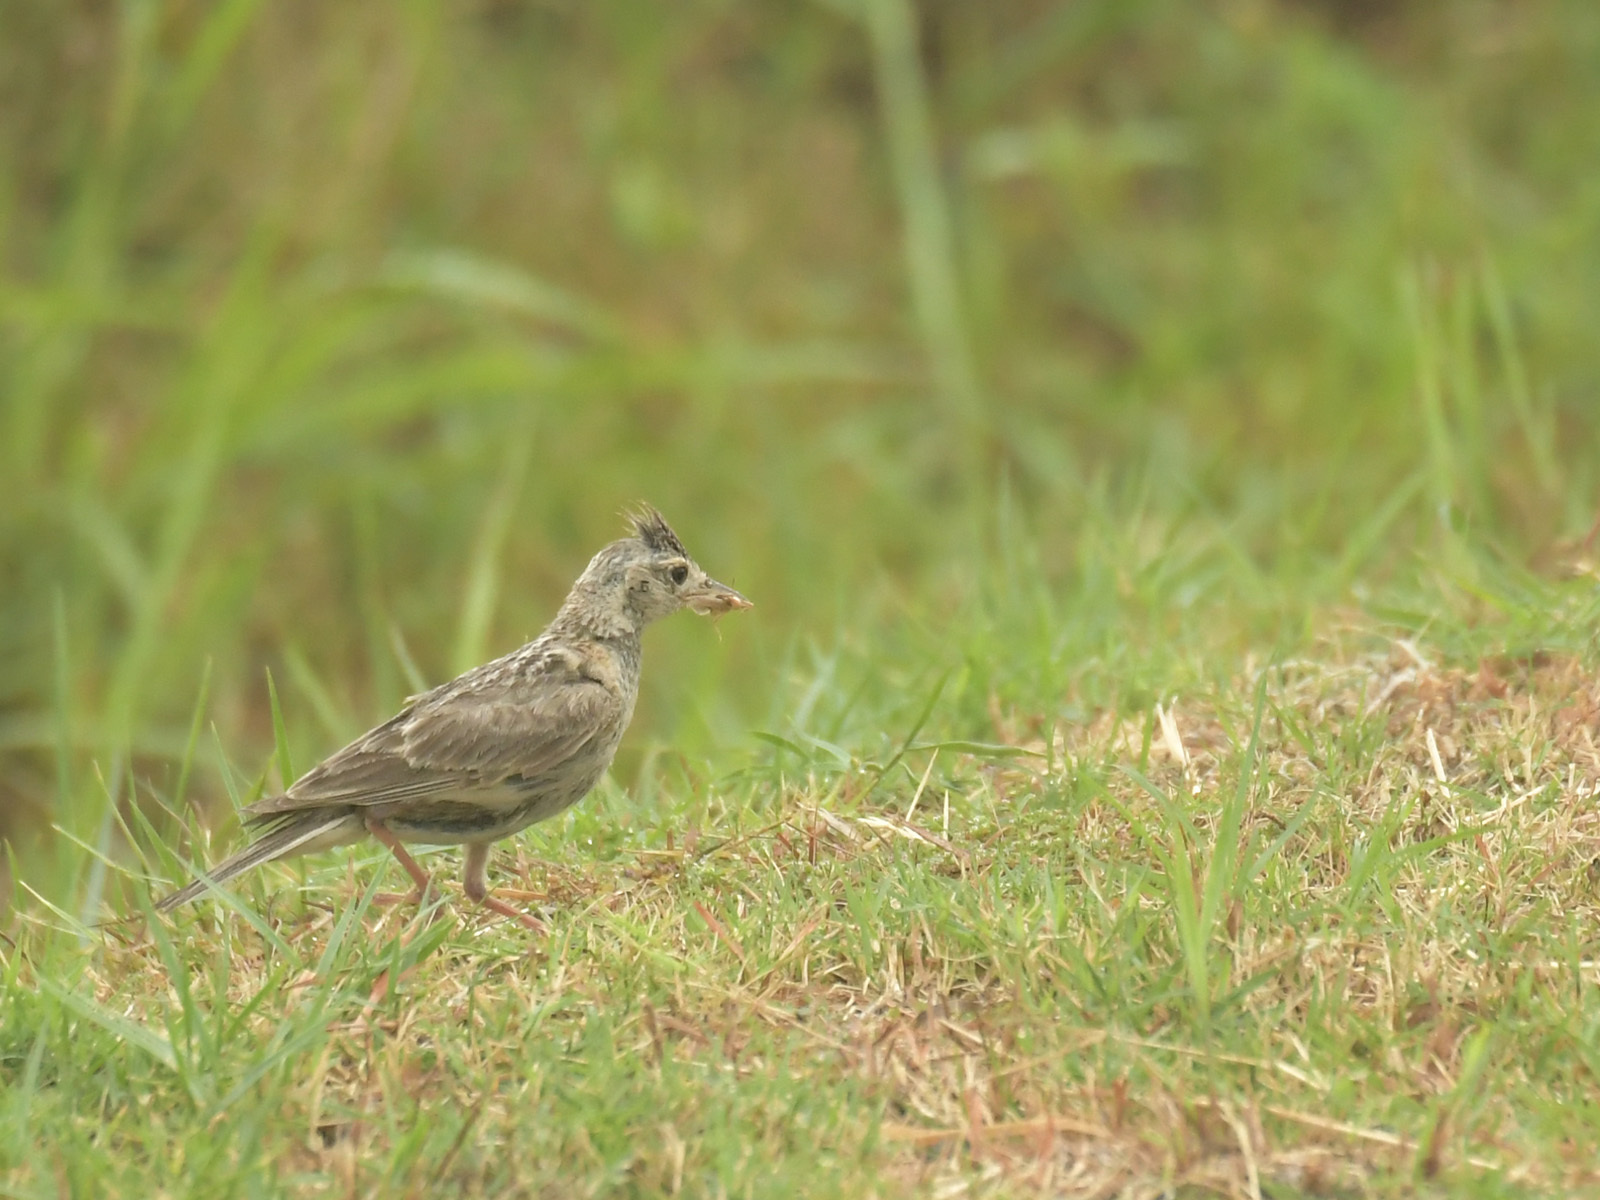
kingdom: Animalia
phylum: Chordata
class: Aves
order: Passeriformes
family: Alaudidae
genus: Alauda
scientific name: Alauda gulgula
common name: Oriental skylark
